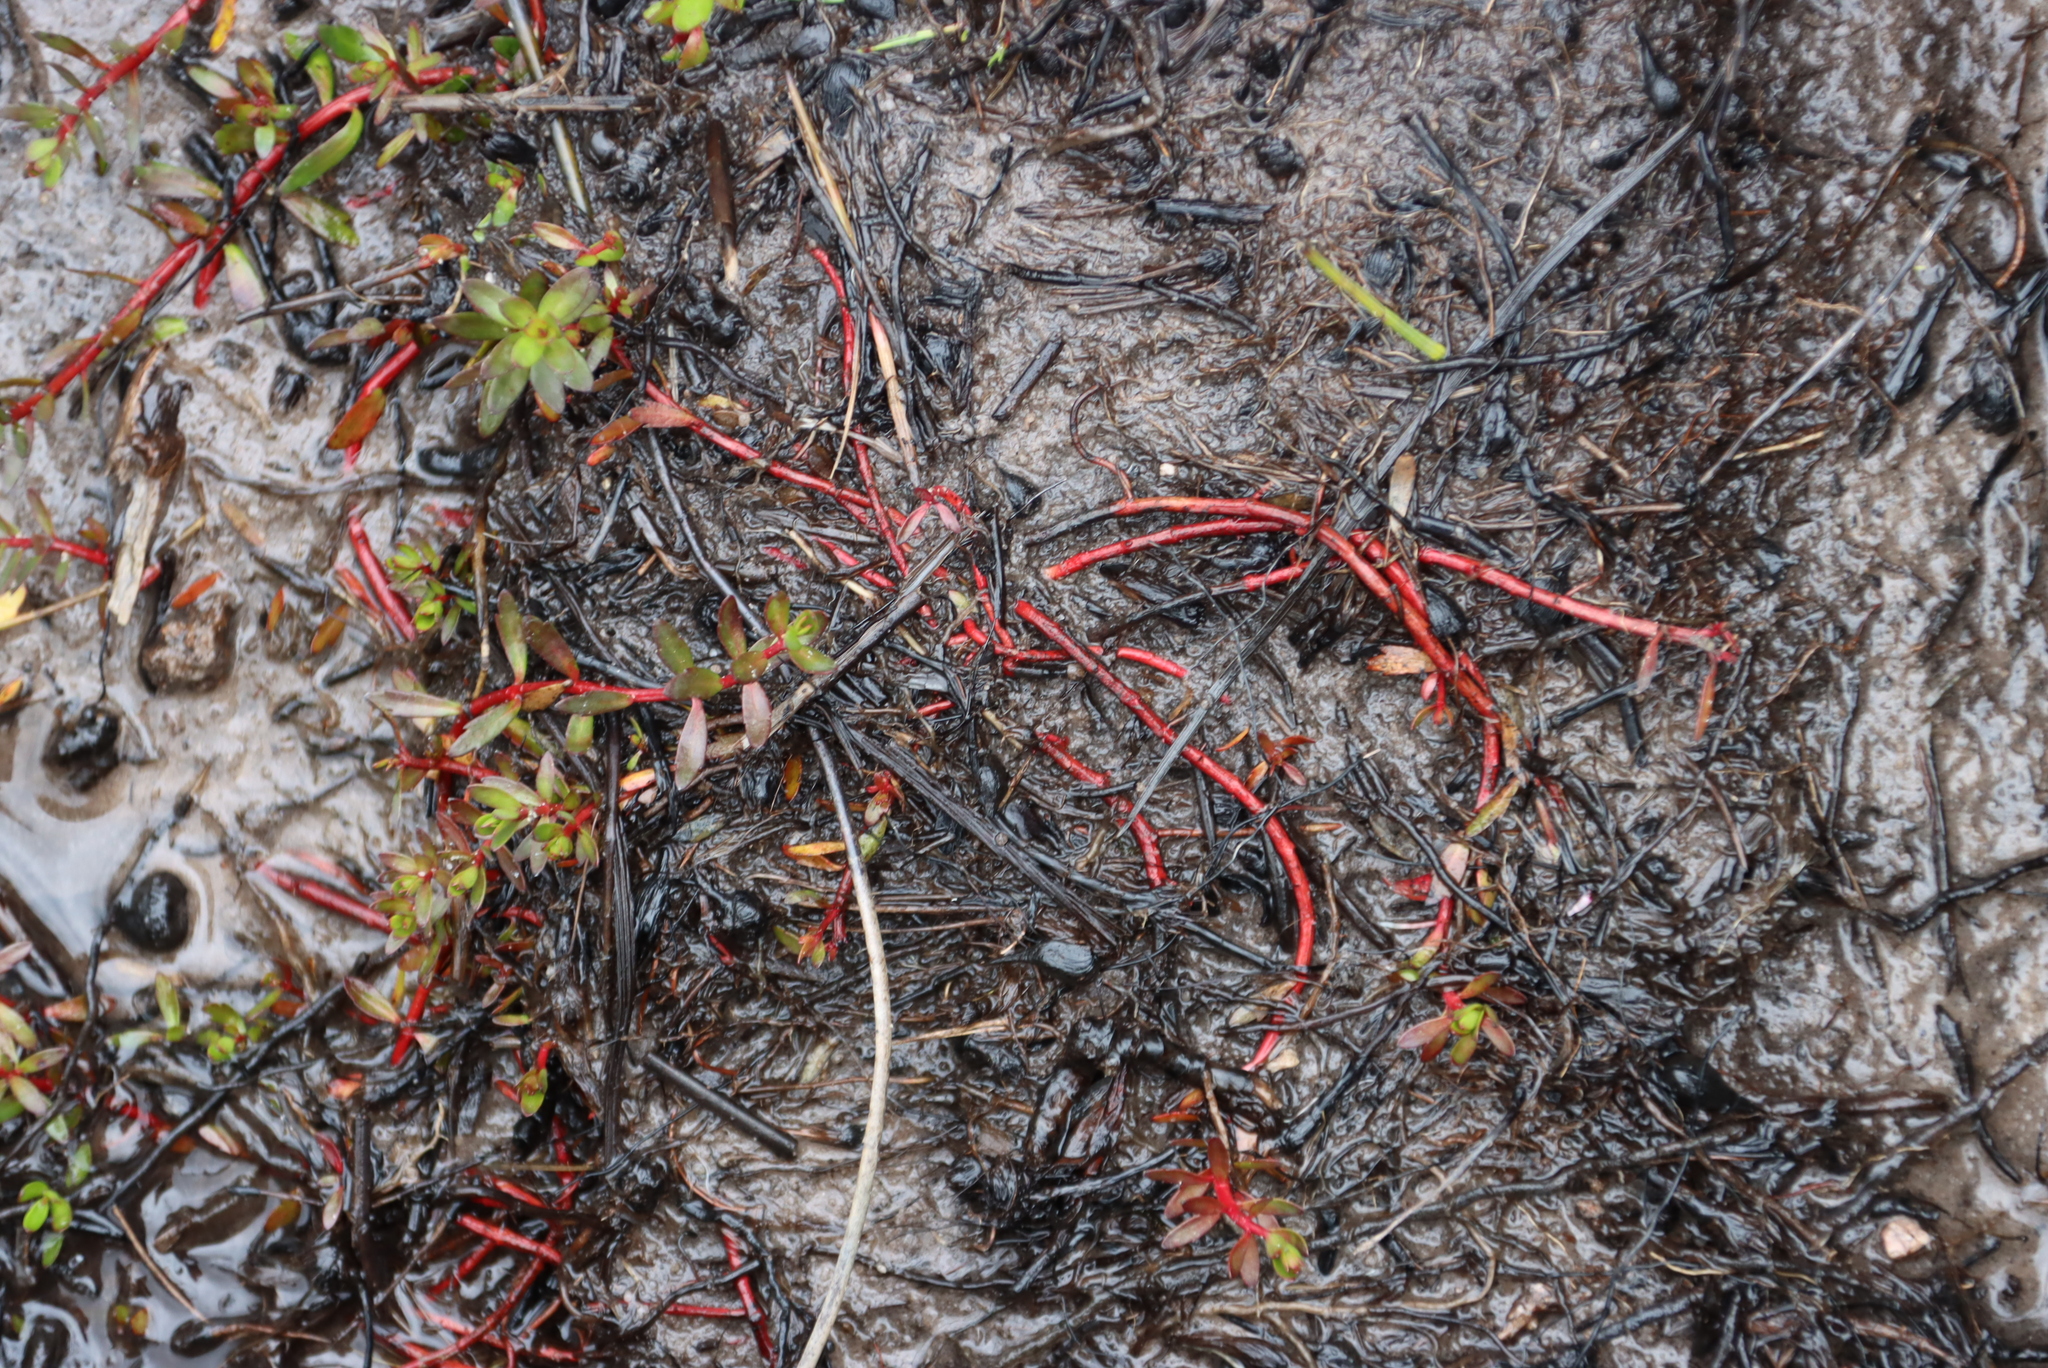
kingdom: Plantae
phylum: Tracheophyta
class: Magnoliopsida
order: Saxifragales
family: Haloragaceae
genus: Laurembergia
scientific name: Laurembergia repens
